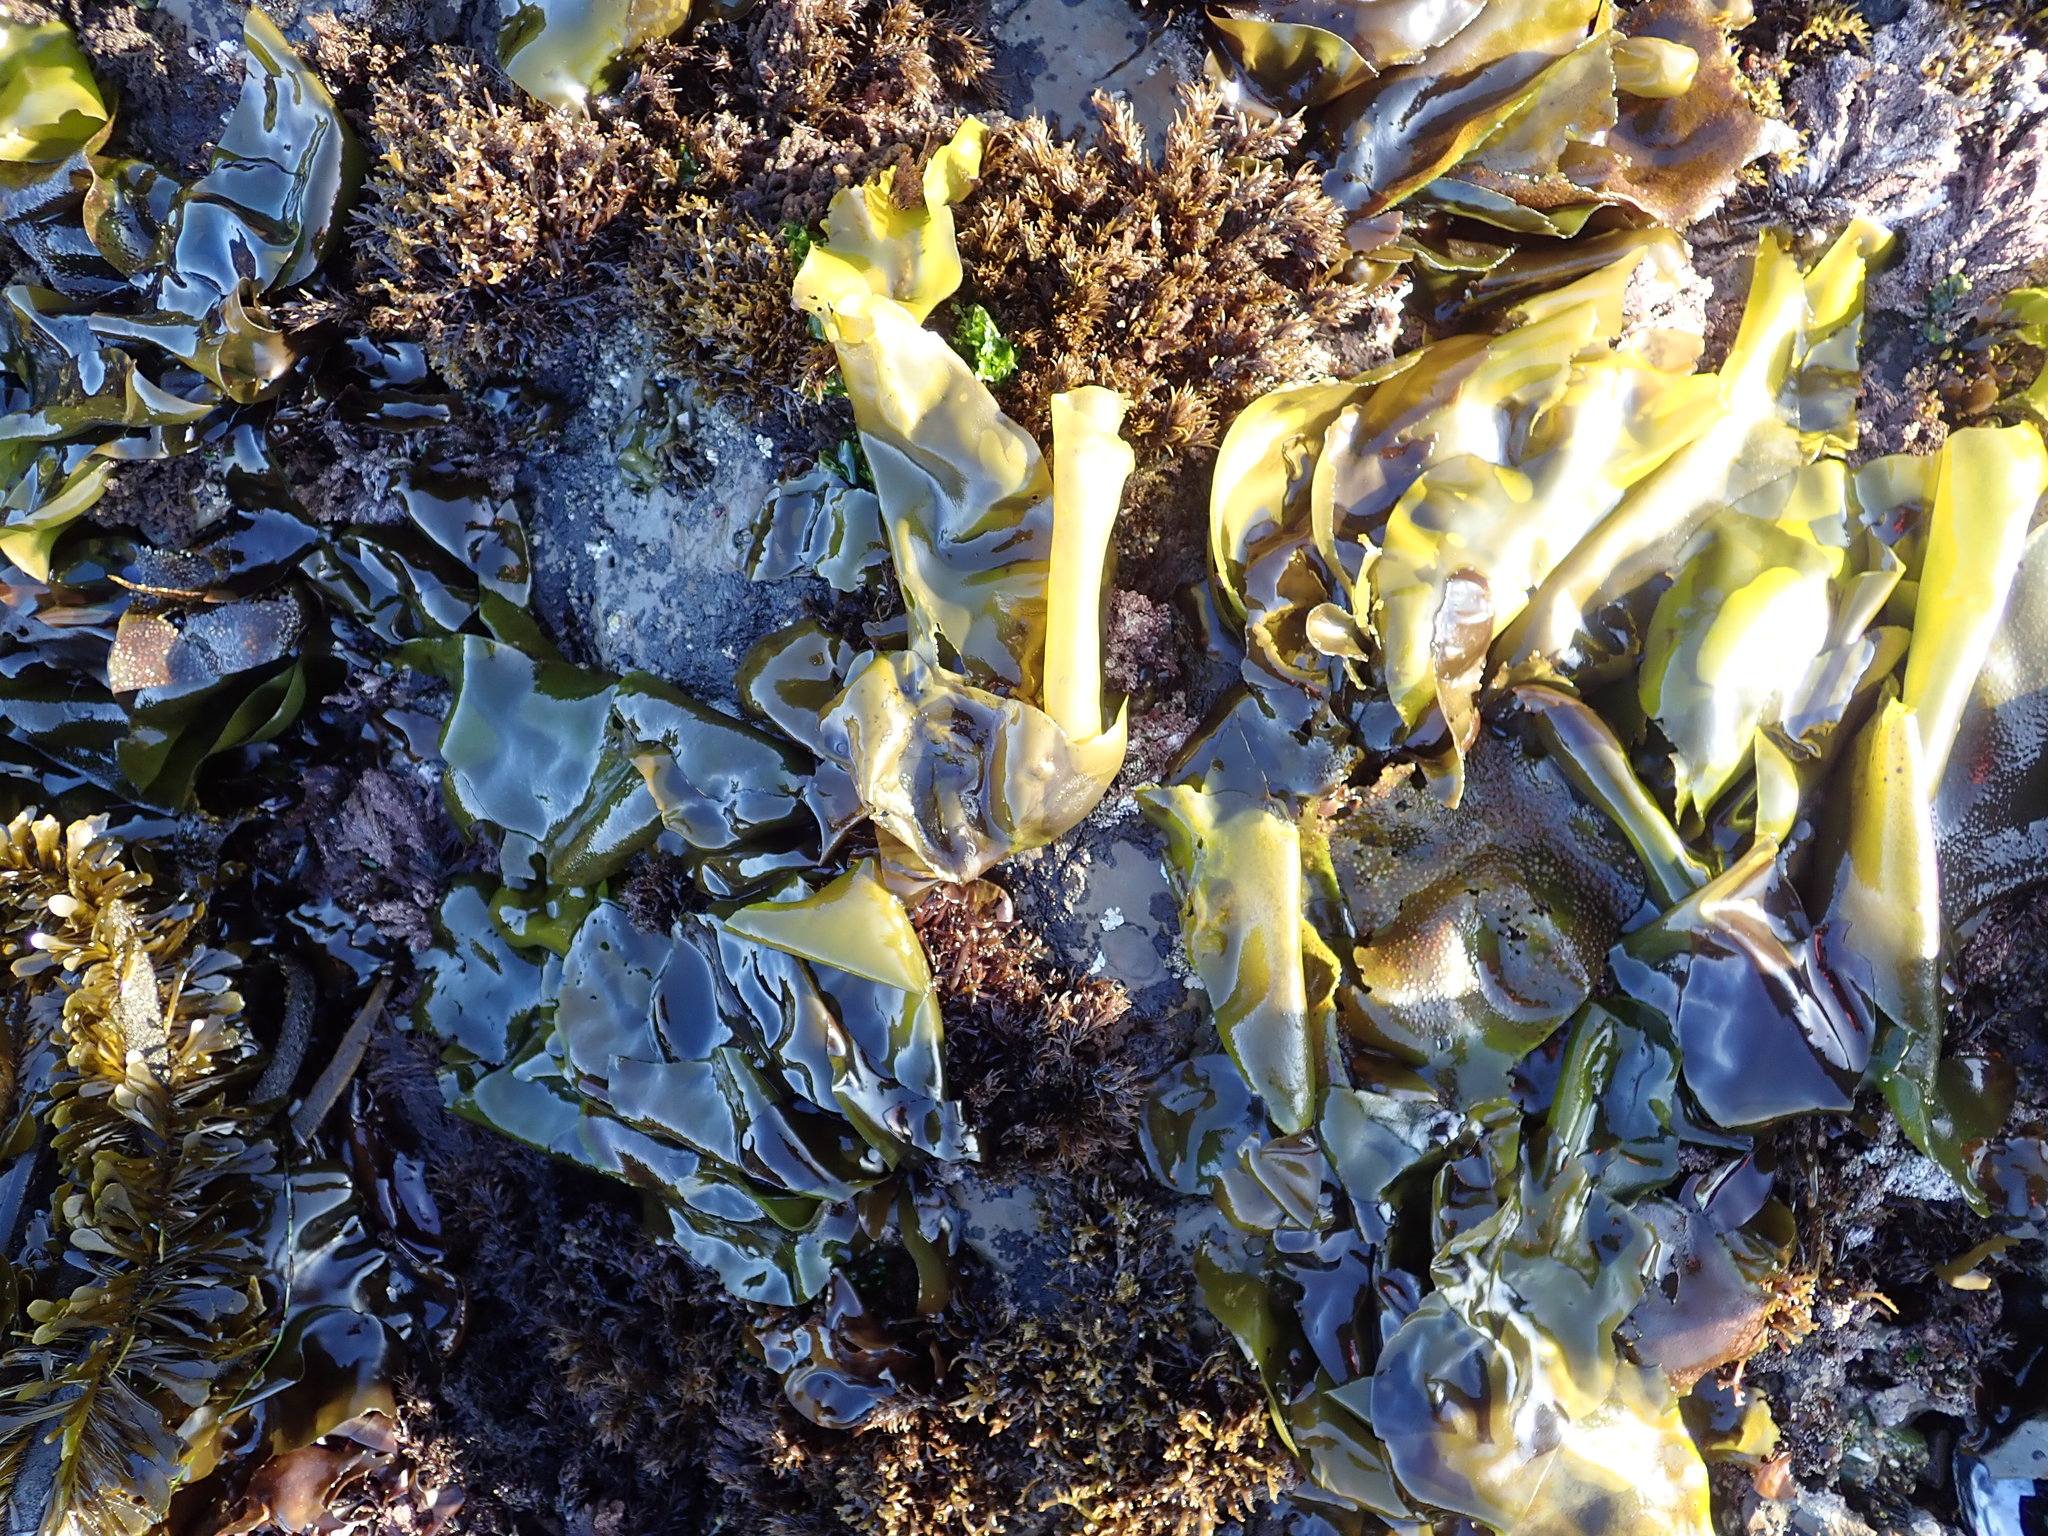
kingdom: Plantae
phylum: Rhodophyta
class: Florideophyceae
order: Gigartinales
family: Gigartinaceae
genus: Mazzaella
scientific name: Mazzaella flaccida
